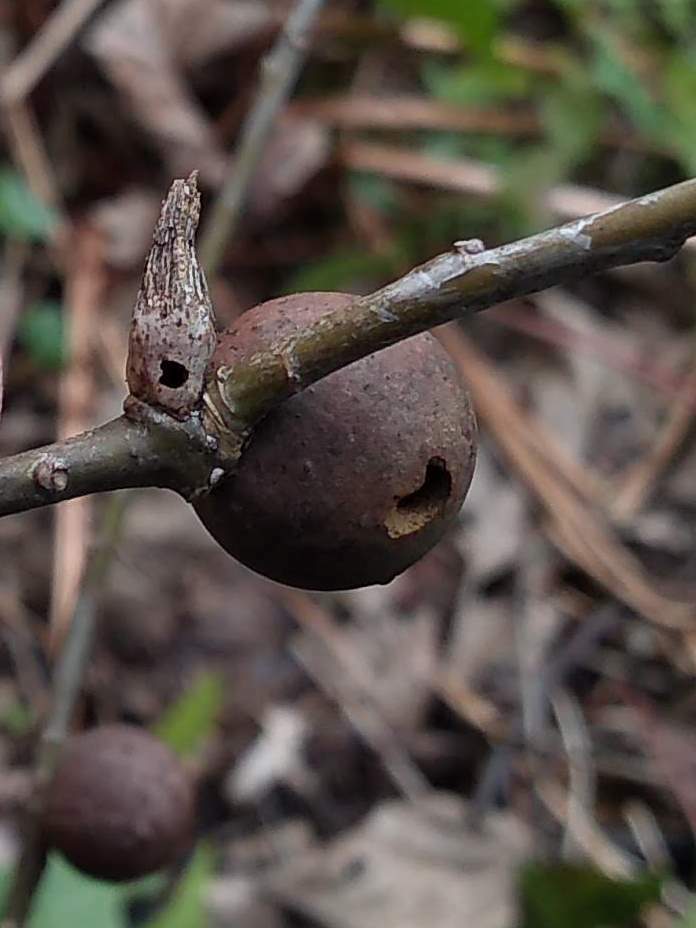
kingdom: Animalia
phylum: Arthropoda
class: Insecta
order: Hymenoptera
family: Cynipidae
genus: Andricus
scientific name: Andricus aries
